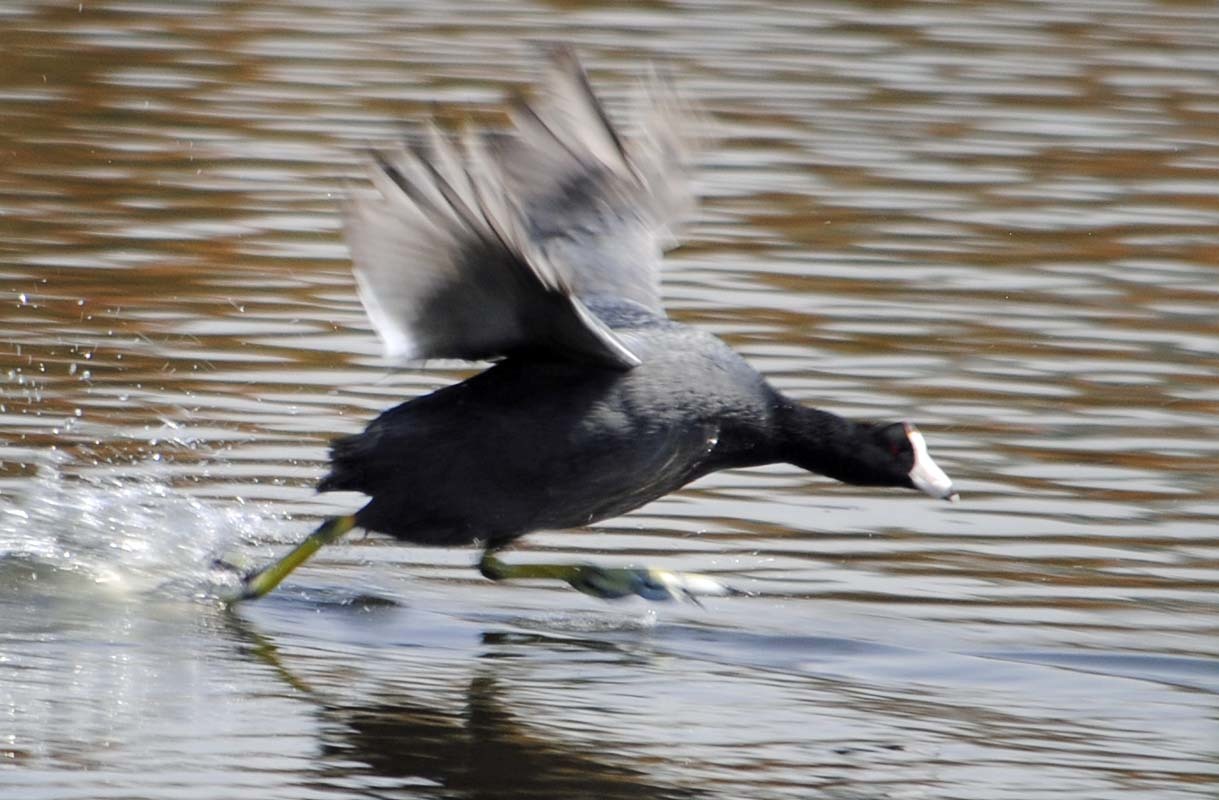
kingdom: Animalia
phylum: Chordata
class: Aves
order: Gruiformes
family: Rallidae
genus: Fulica
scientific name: Fulica americana
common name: American coot
